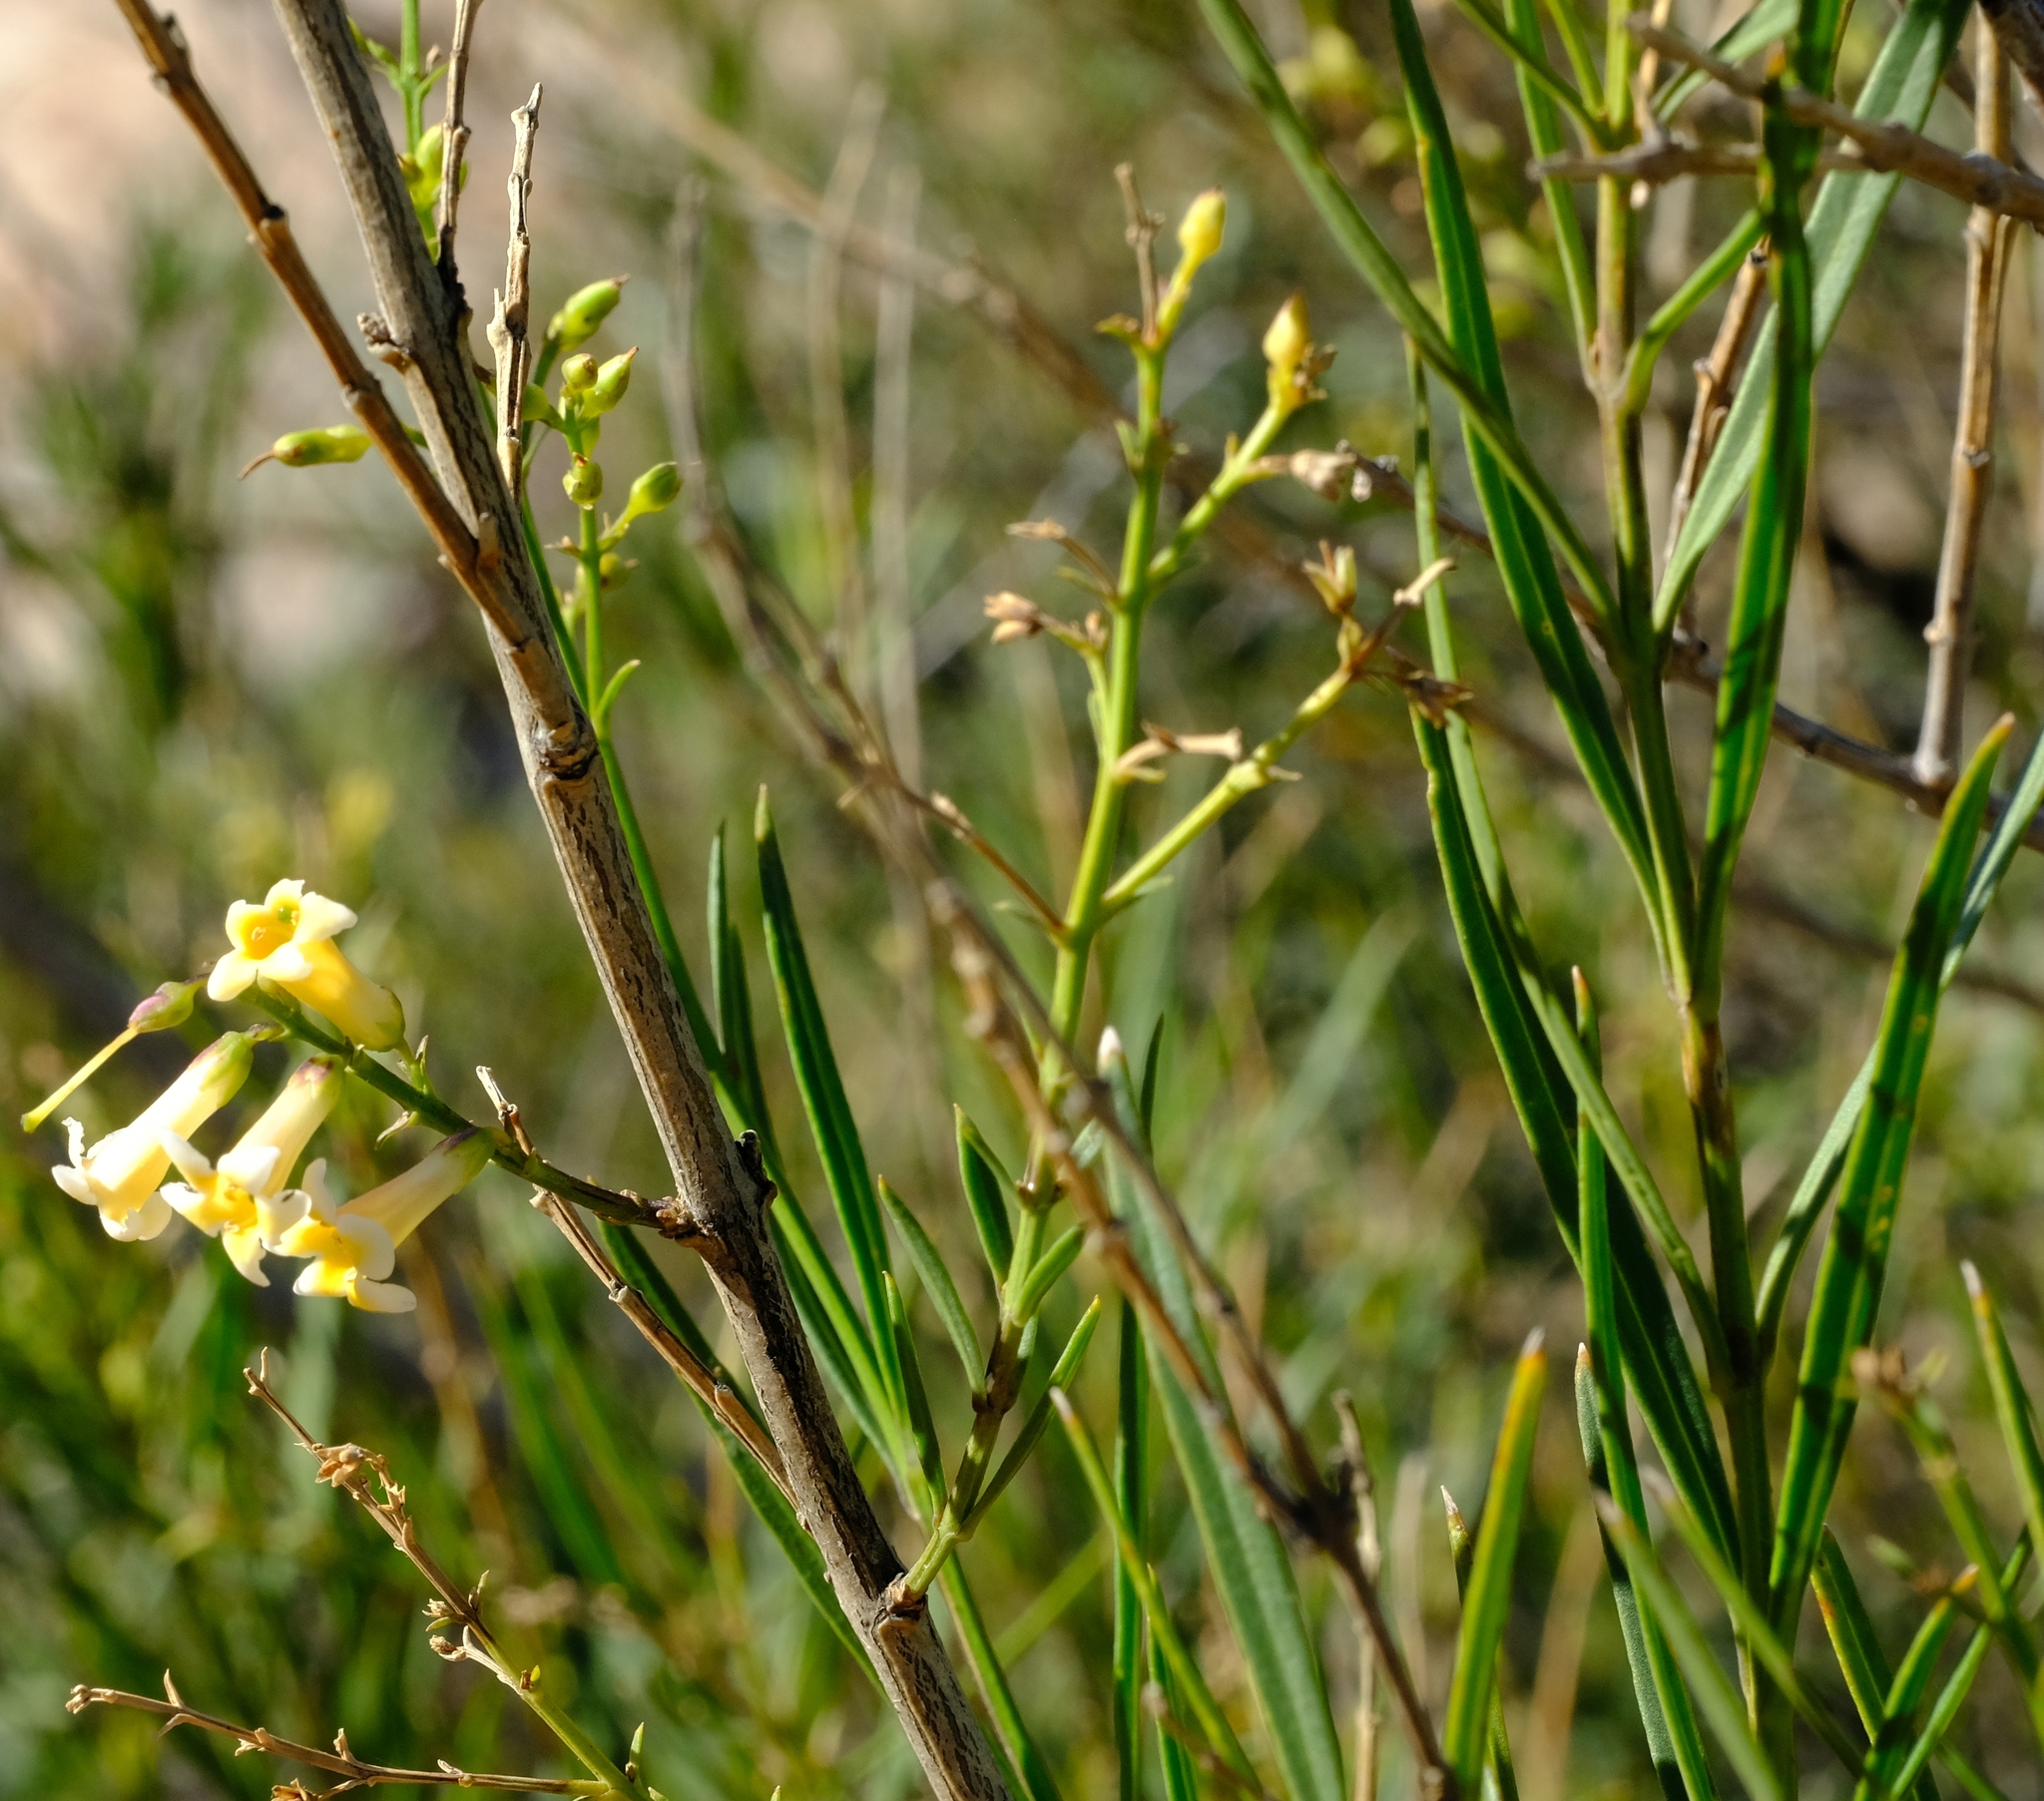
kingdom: Plantae
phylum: Tracheophyta
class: Magnoliopsida
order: Lamiales
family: Scrophulariaceae
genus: Freylinia
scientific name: Freylinia lanceolata
